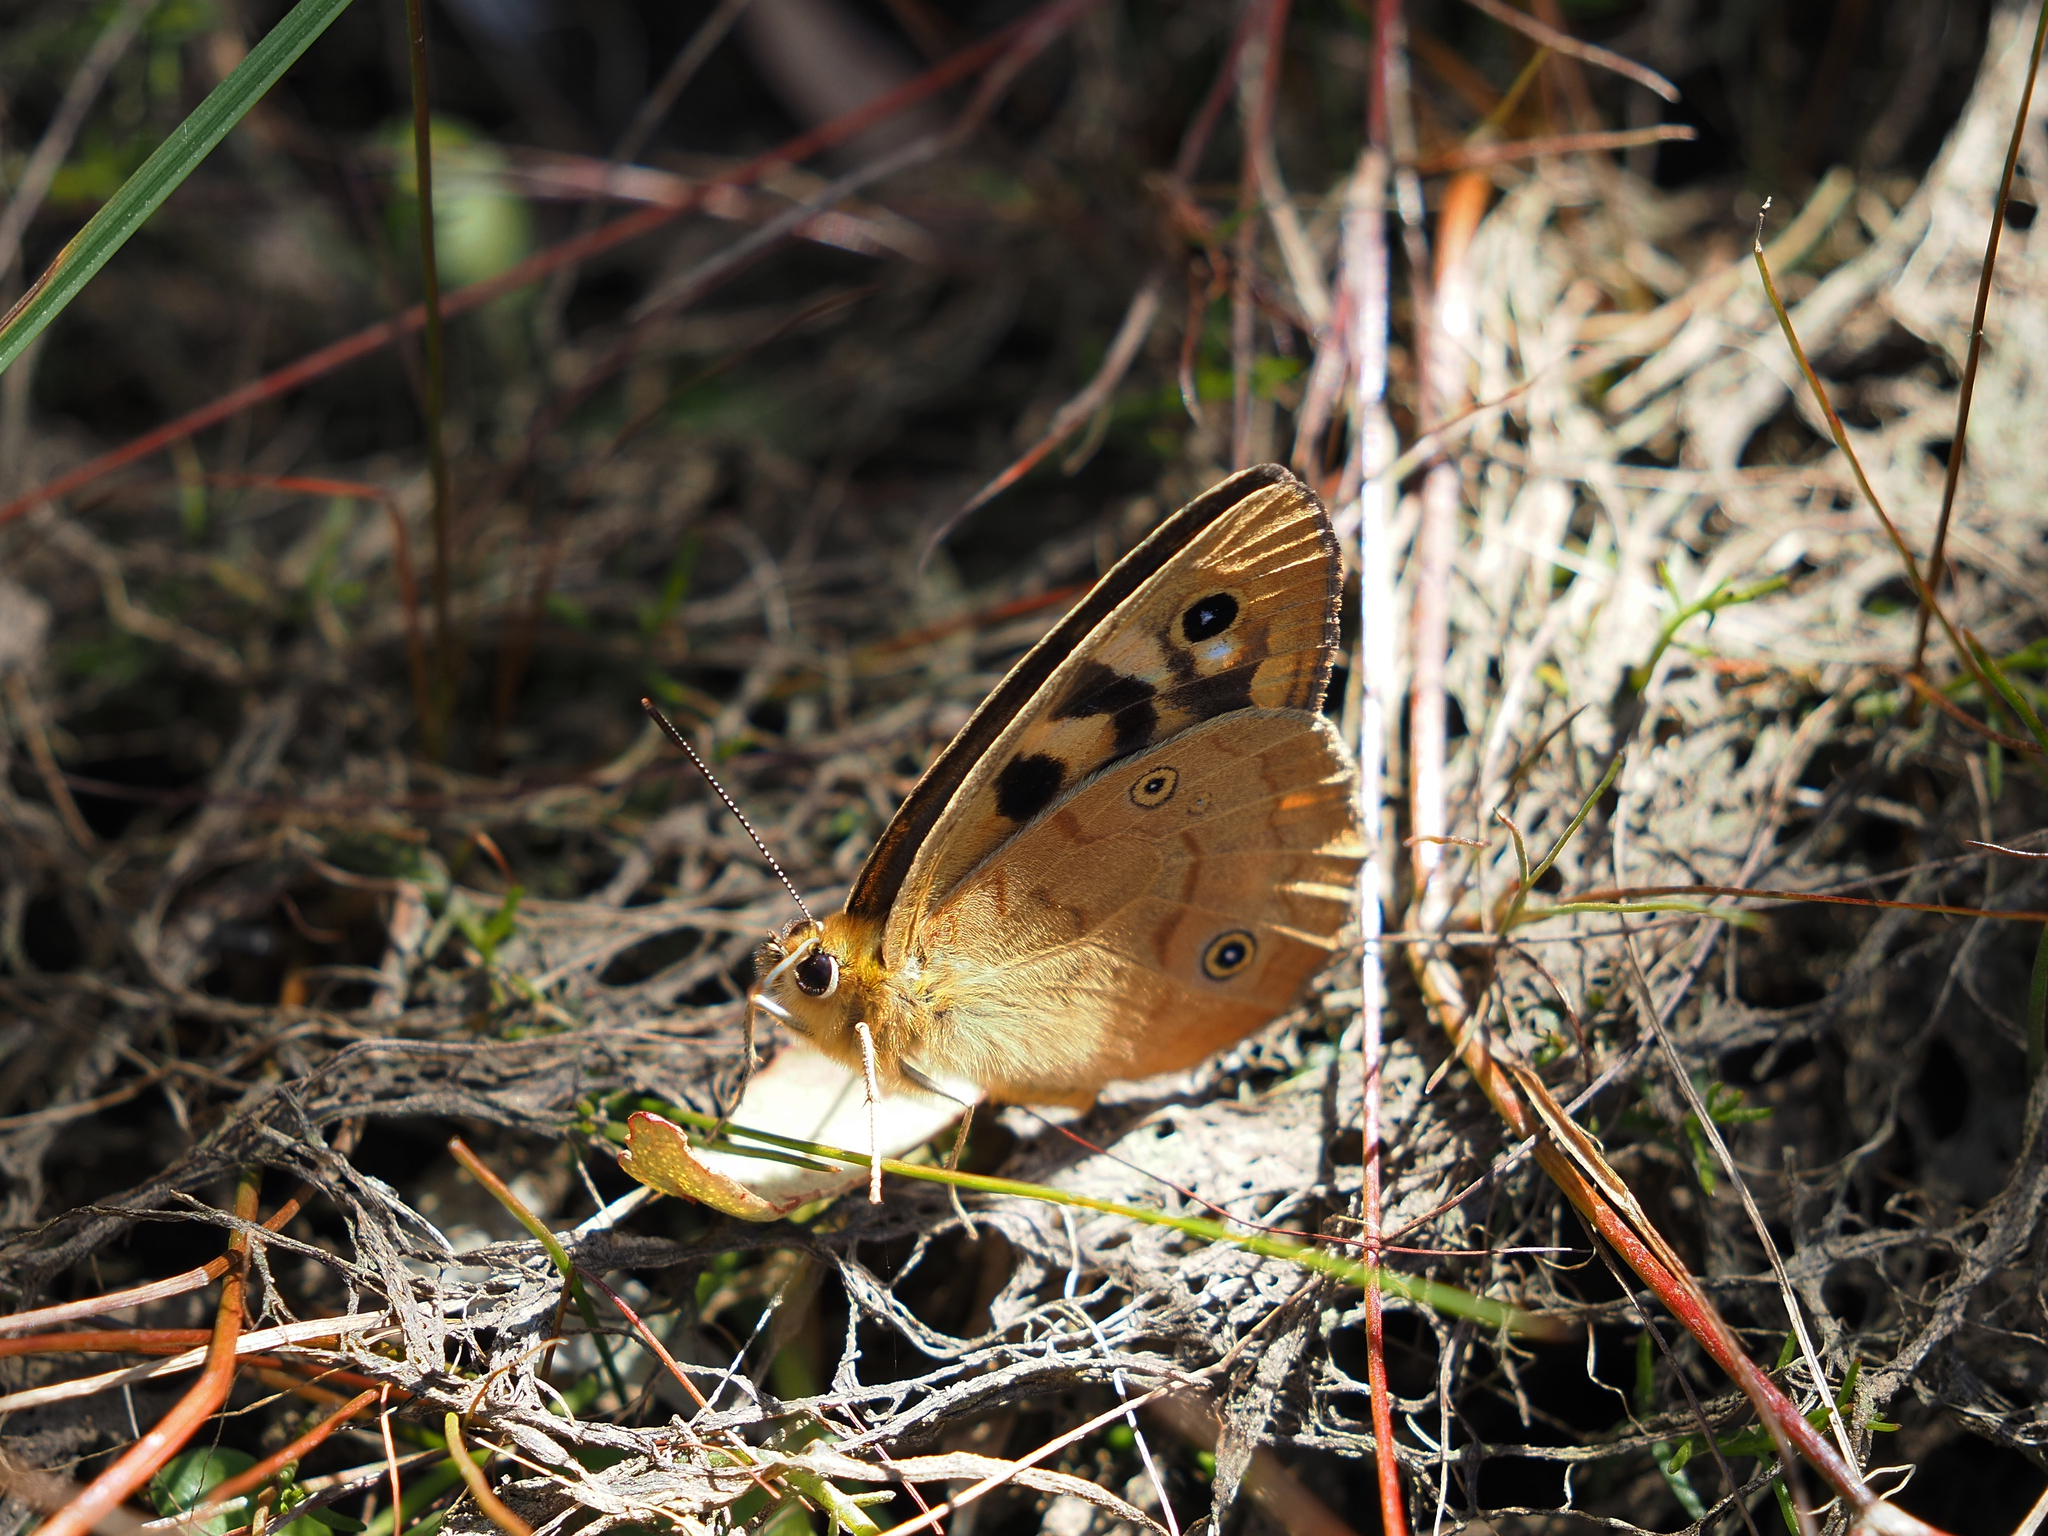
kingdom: Animalia
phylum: Arthropoda
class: Insecta
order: Lepidoptera
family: Nymphalidae
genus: Heteronympha
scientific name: Heteronympha penelope
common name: Shouldered brown
